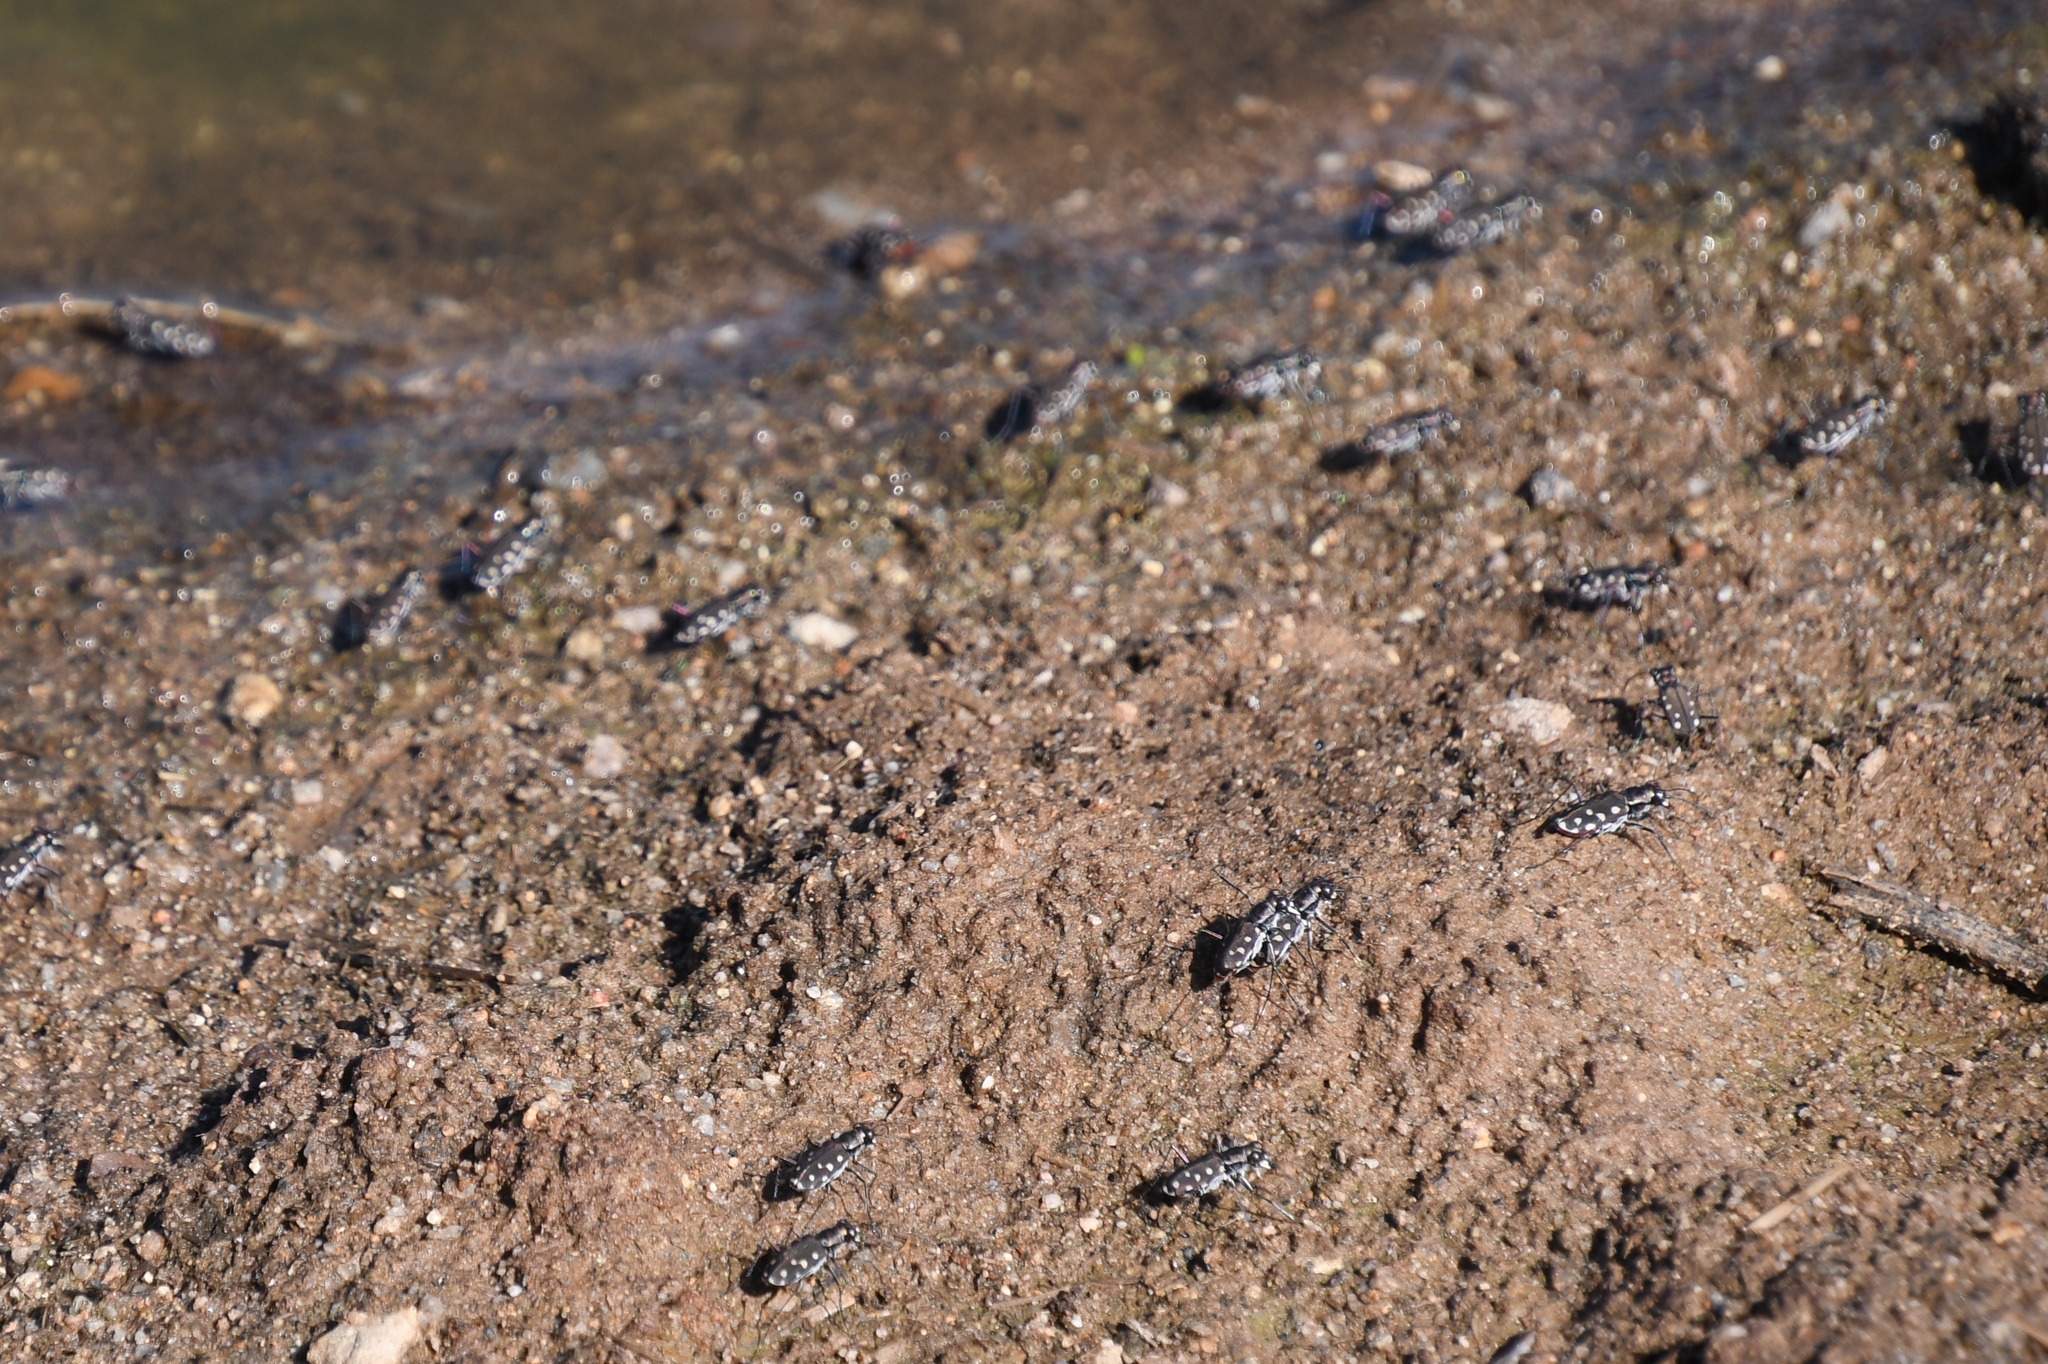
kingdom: Animalia
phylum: Arthropoda
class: Insecta
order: Coleoptera
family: Carabidae
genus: Cicindela
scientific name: Cicindela sedecimpunctata
